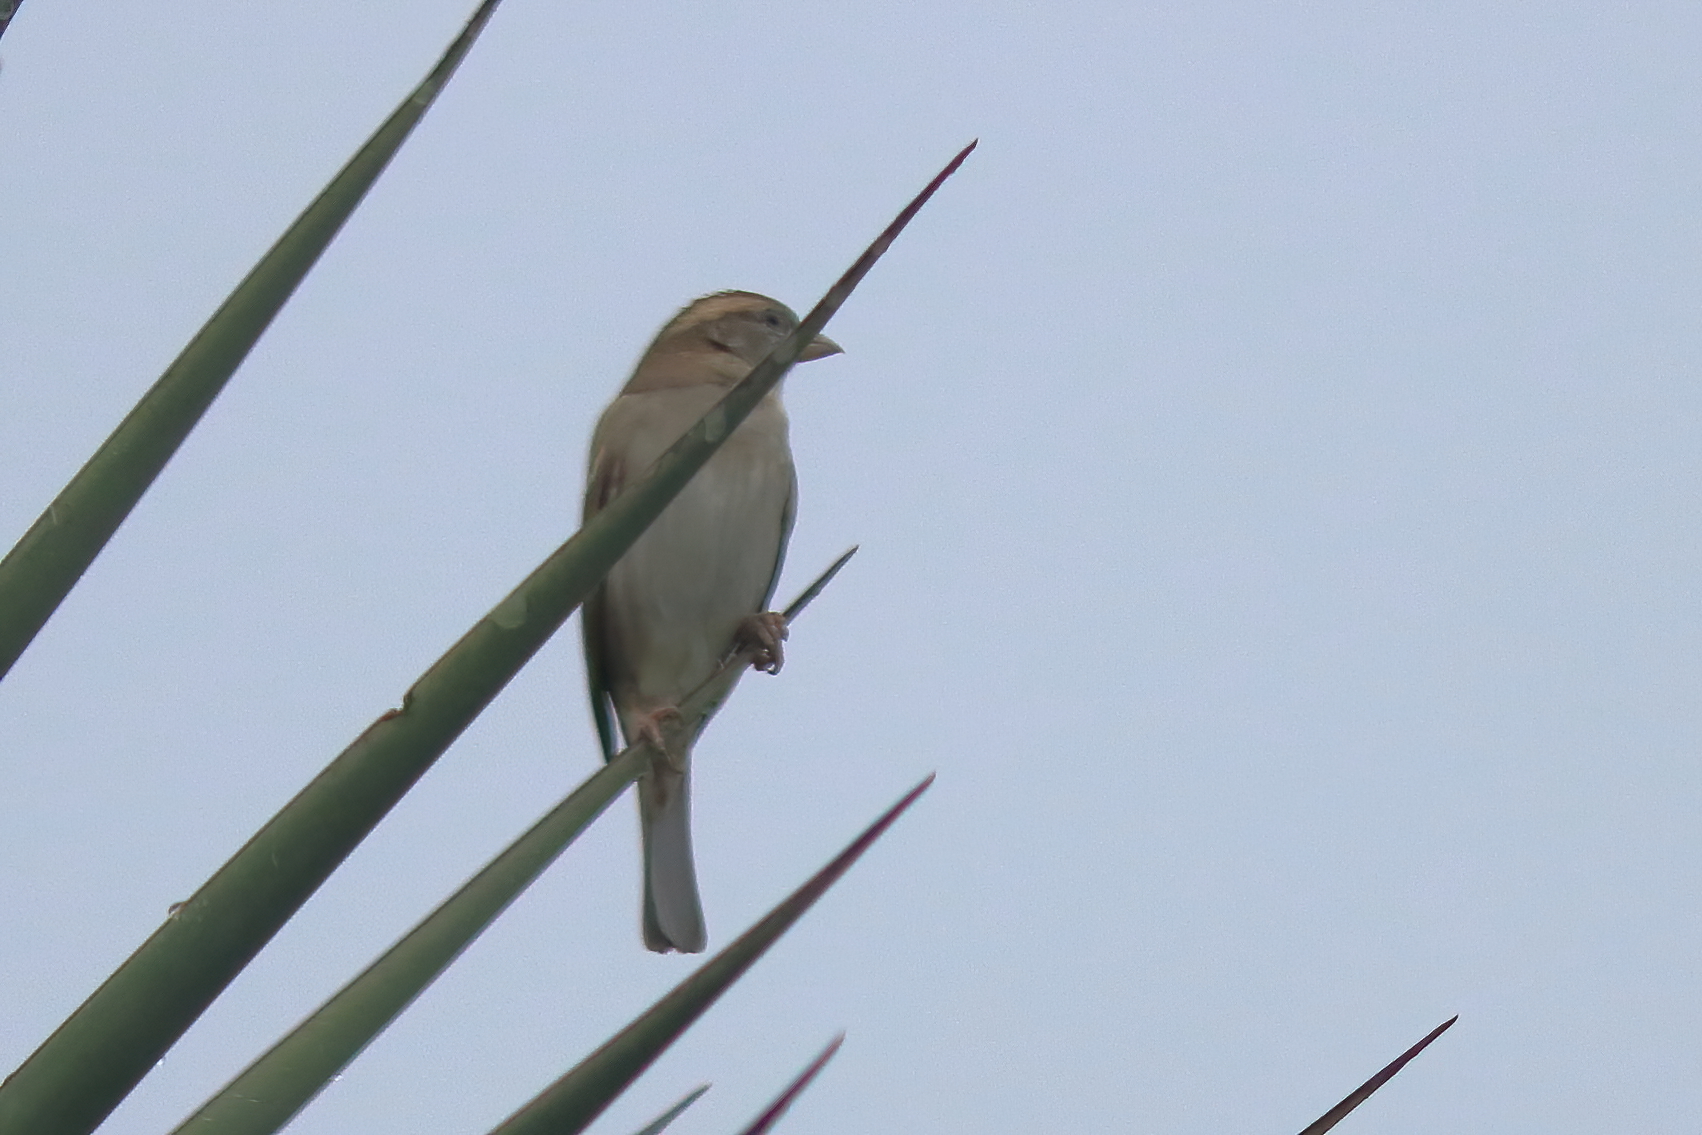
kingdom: Animalia
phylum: Chordata
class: Aves
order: Passeriformes
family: Passeridae
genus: Passer
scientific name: Passer domesticus
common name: House sparrow
